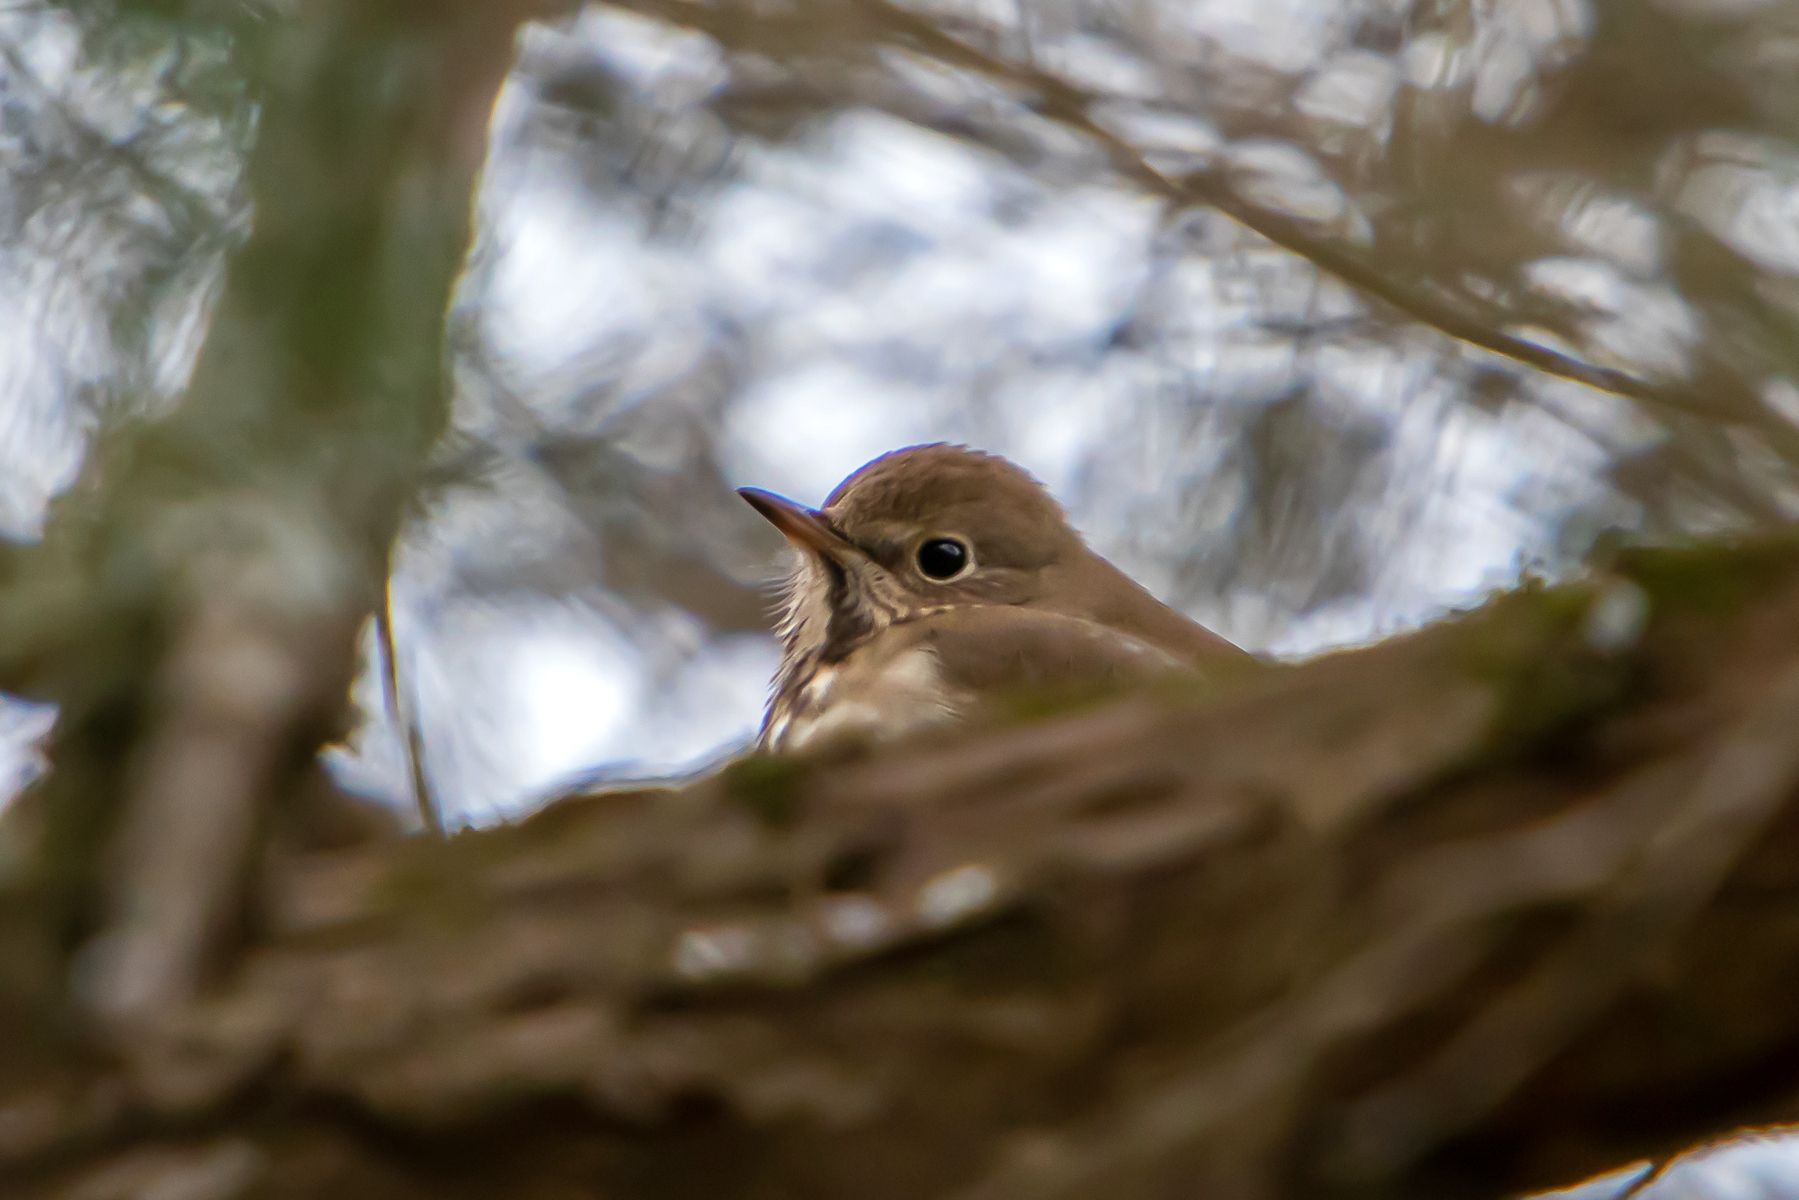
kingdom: Animalia
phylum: Chordata
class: Aves
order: Passeriformes
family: Turdidae
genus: Catharus
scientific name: Catharus guttatus
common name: Hermit thrush
